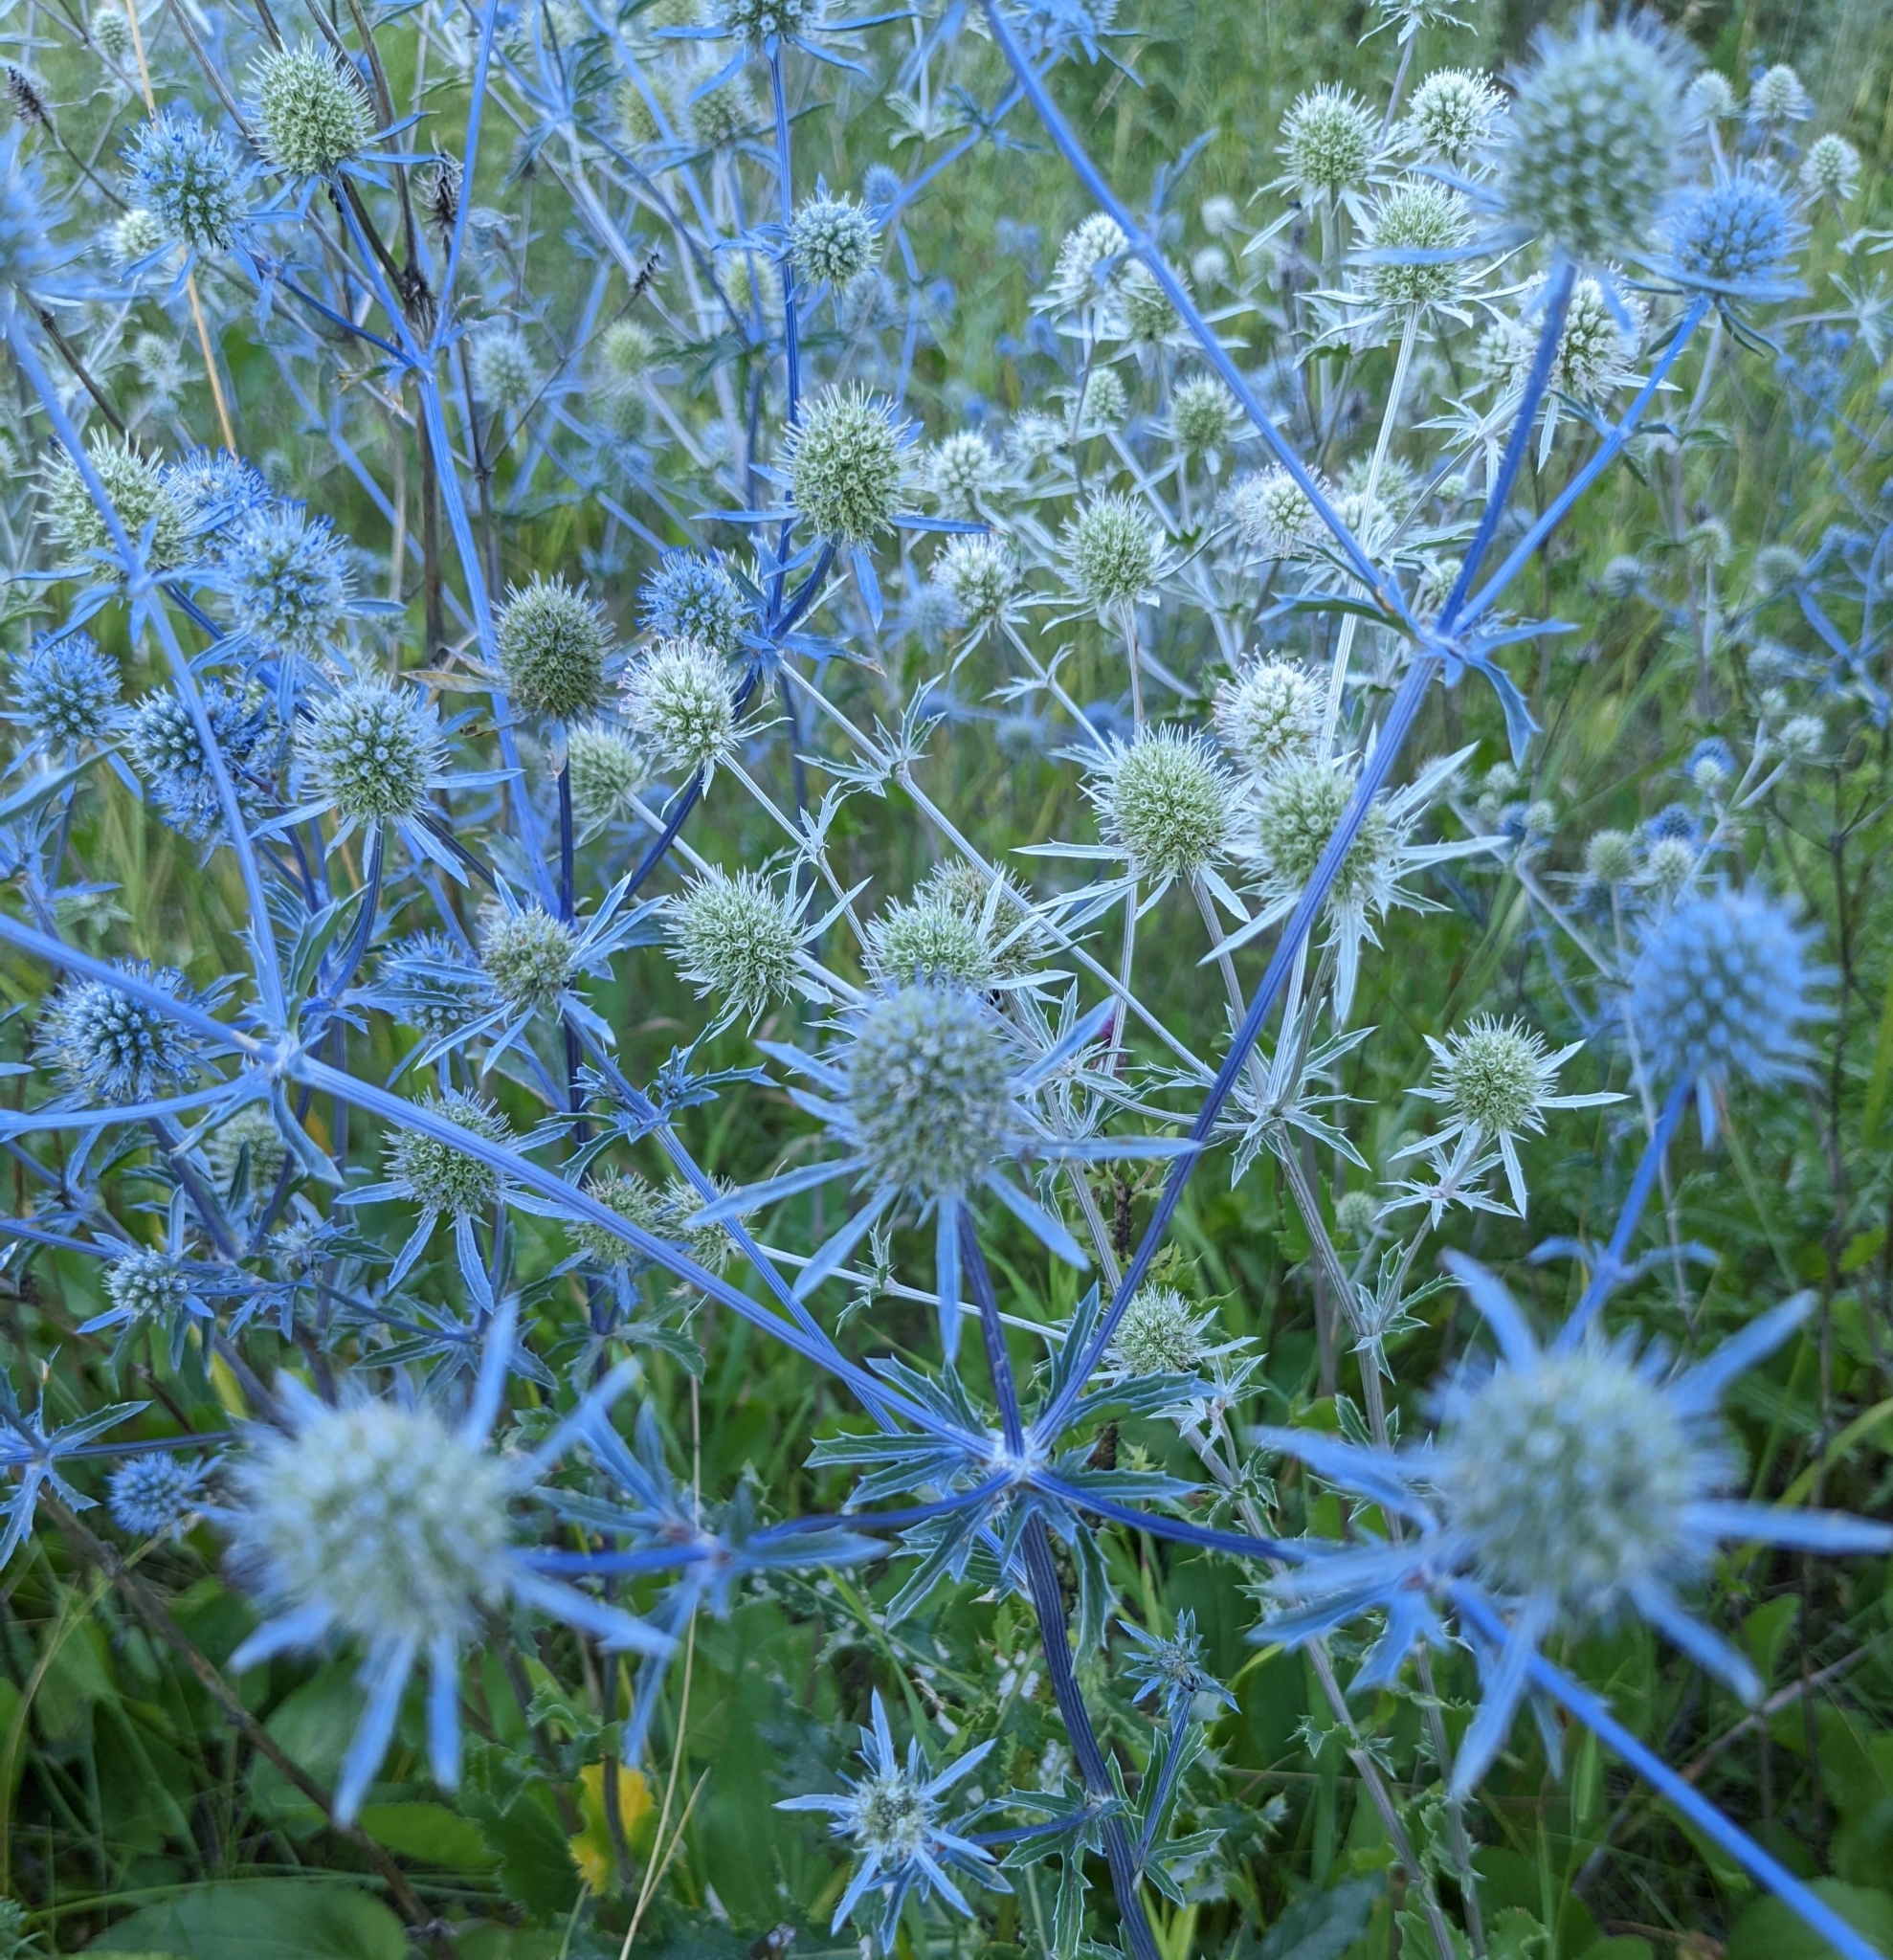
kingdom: Plantae
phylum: Tracheophyta
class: Magnoliopsida
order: Apiales
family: Apiaceae
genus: Eryngium
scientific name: Eryngium planum
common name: Blue eryngo
